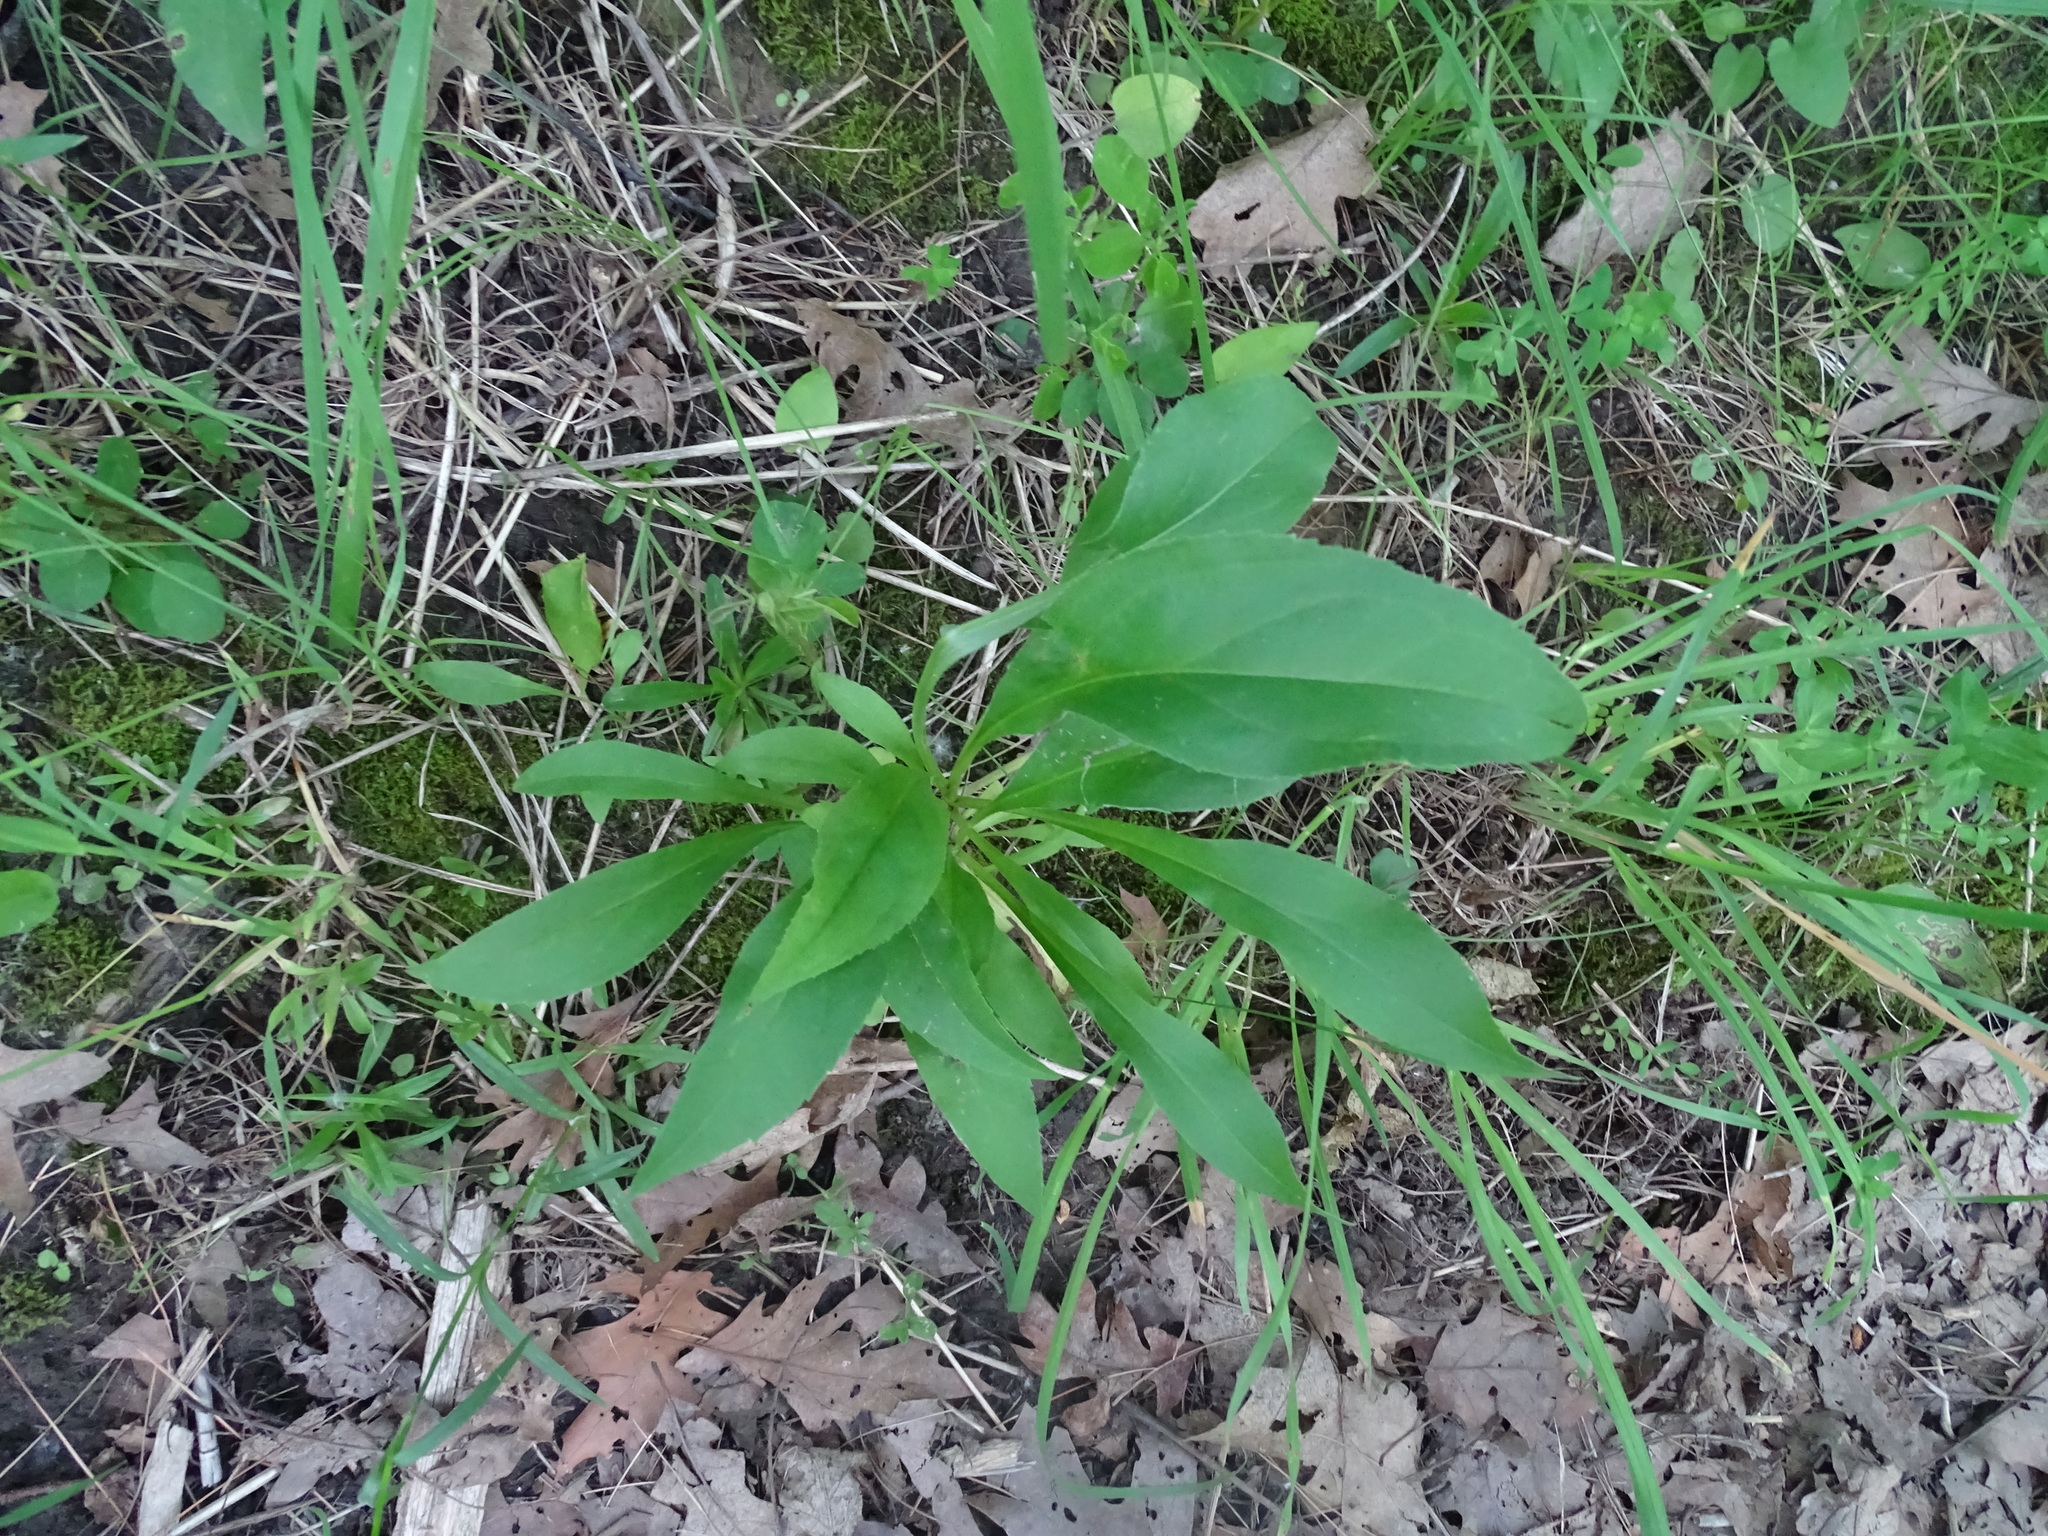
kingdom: Plantae
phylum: Tracheophyta
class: Magnoliopsida
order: Asterales
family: Asteraceae
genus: Solidago
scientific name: Solidago juncea
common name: Early goldenrod
